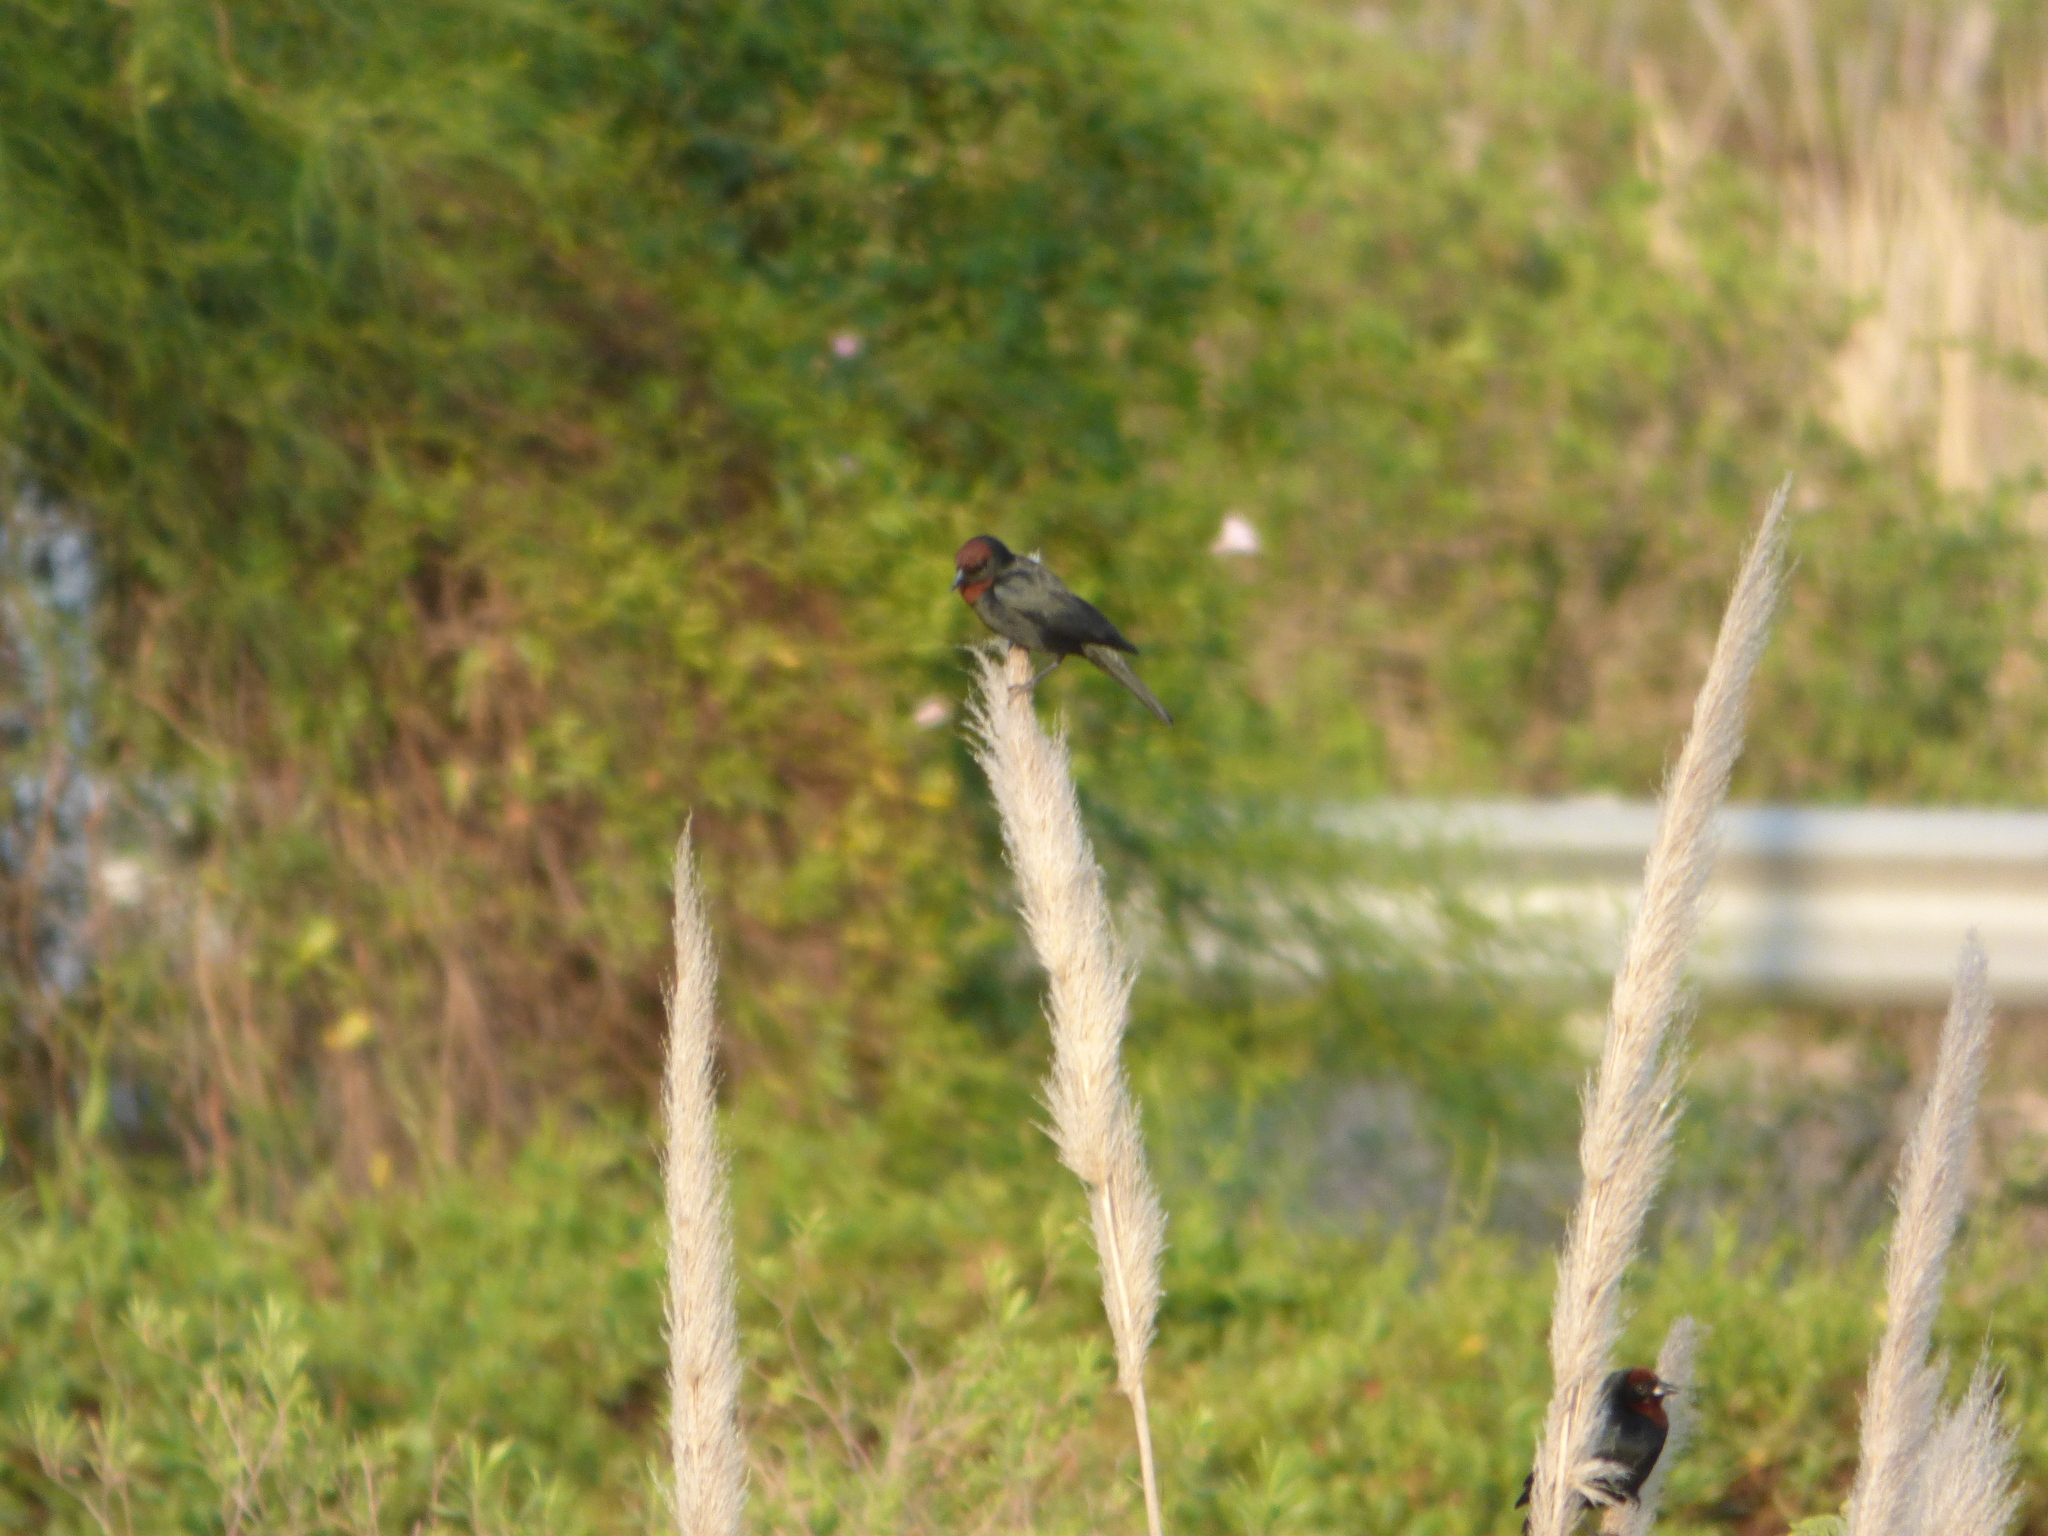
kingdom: Animalia
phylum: Chordata
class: Aves
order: Passeriformes
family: Icteridae
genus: Chrysomus
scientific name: Chrysomus ruficapillus
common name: Chestnut-capped blackbird
